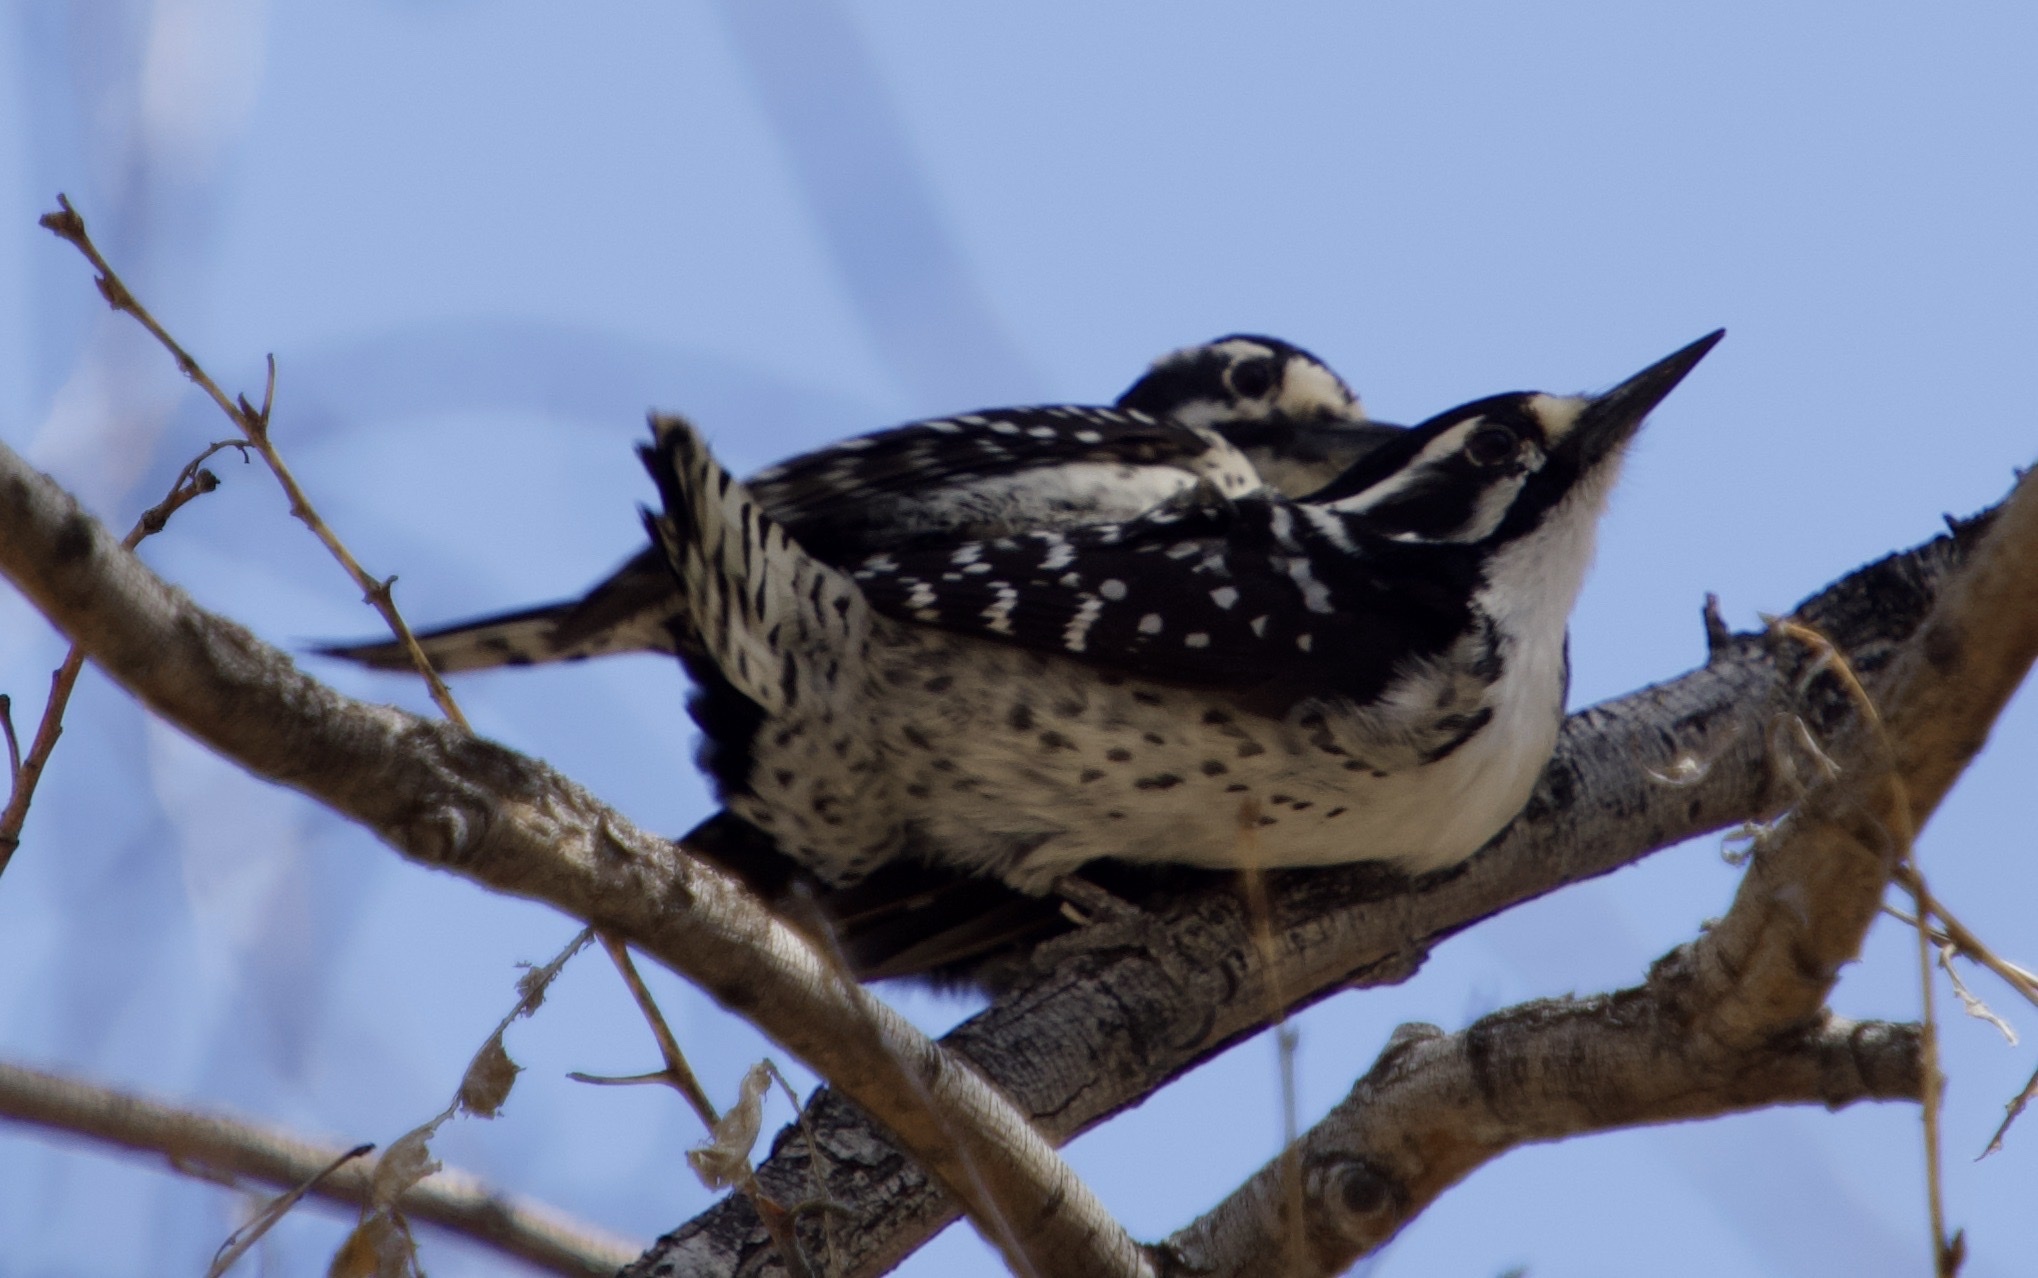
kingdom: Animalia
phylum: Chordata
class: Aves
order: Piciformes
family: Picidae
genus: Dryobates
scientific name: Dryobates
